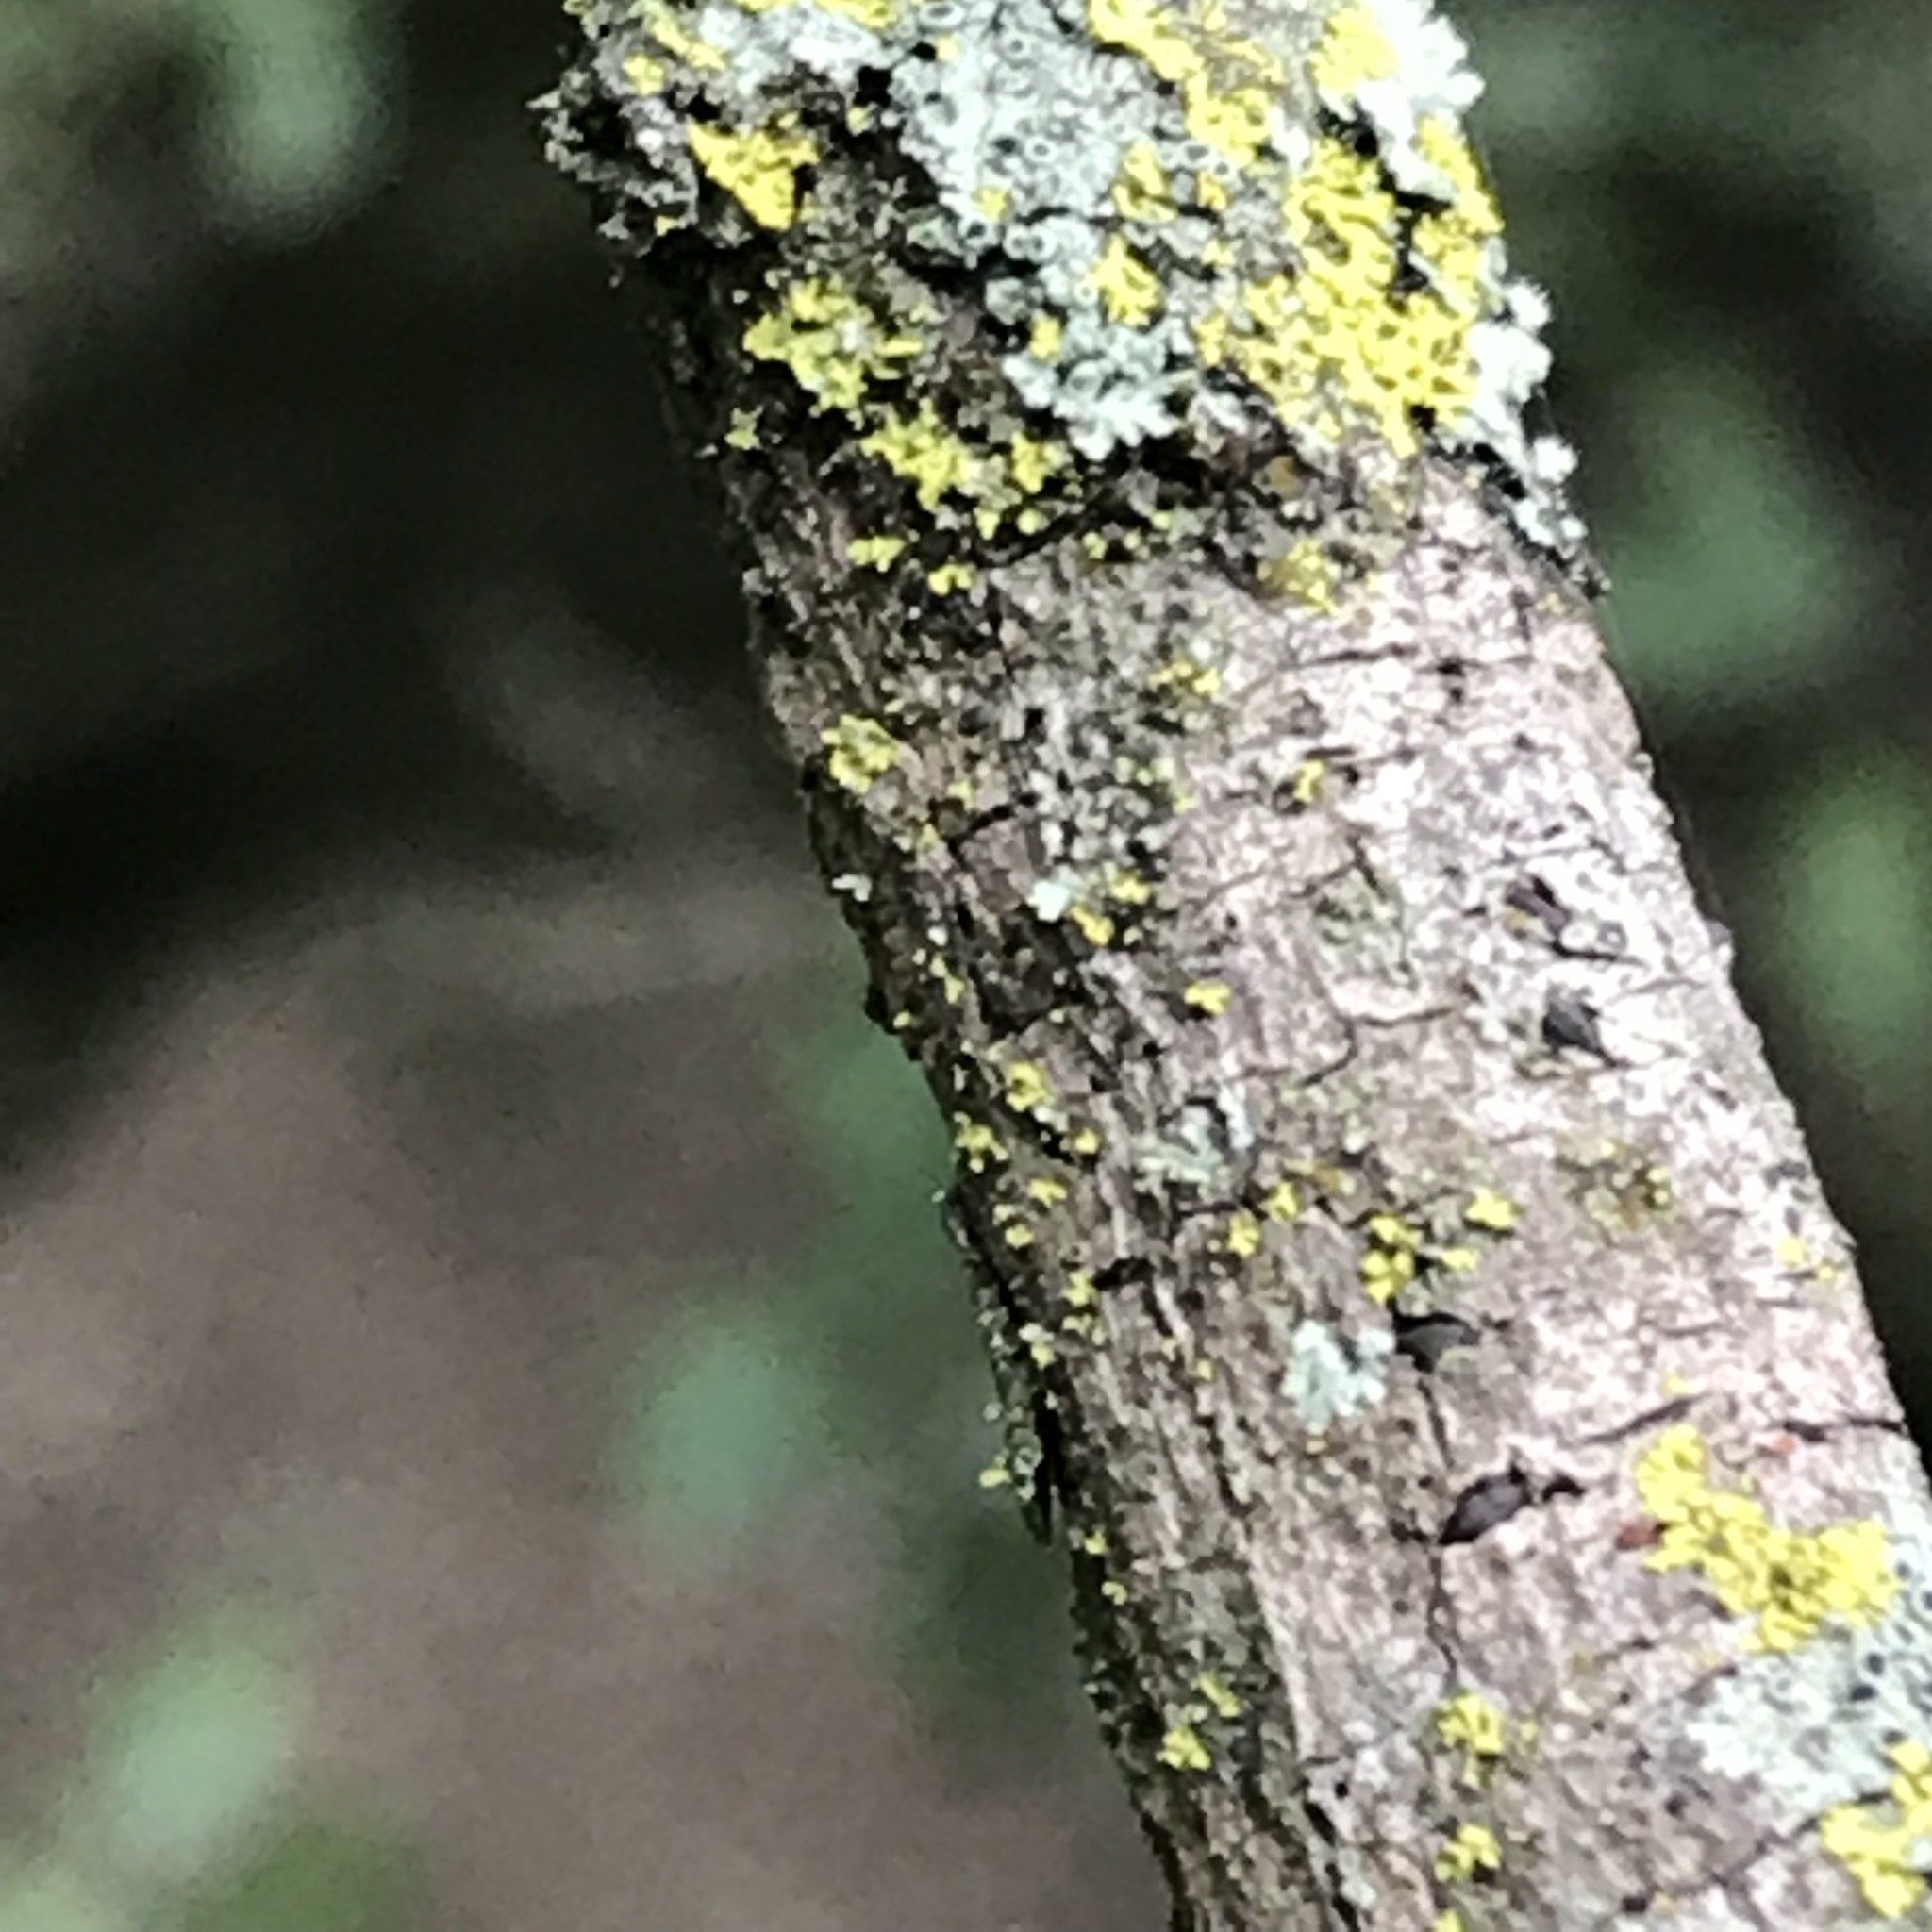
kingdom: Fungi
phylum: Ascomycota
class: Lecanoromycetes
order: Teloschistales
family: Teloschistaceae
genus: Gallowayella
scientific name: Gallowayella weberi
